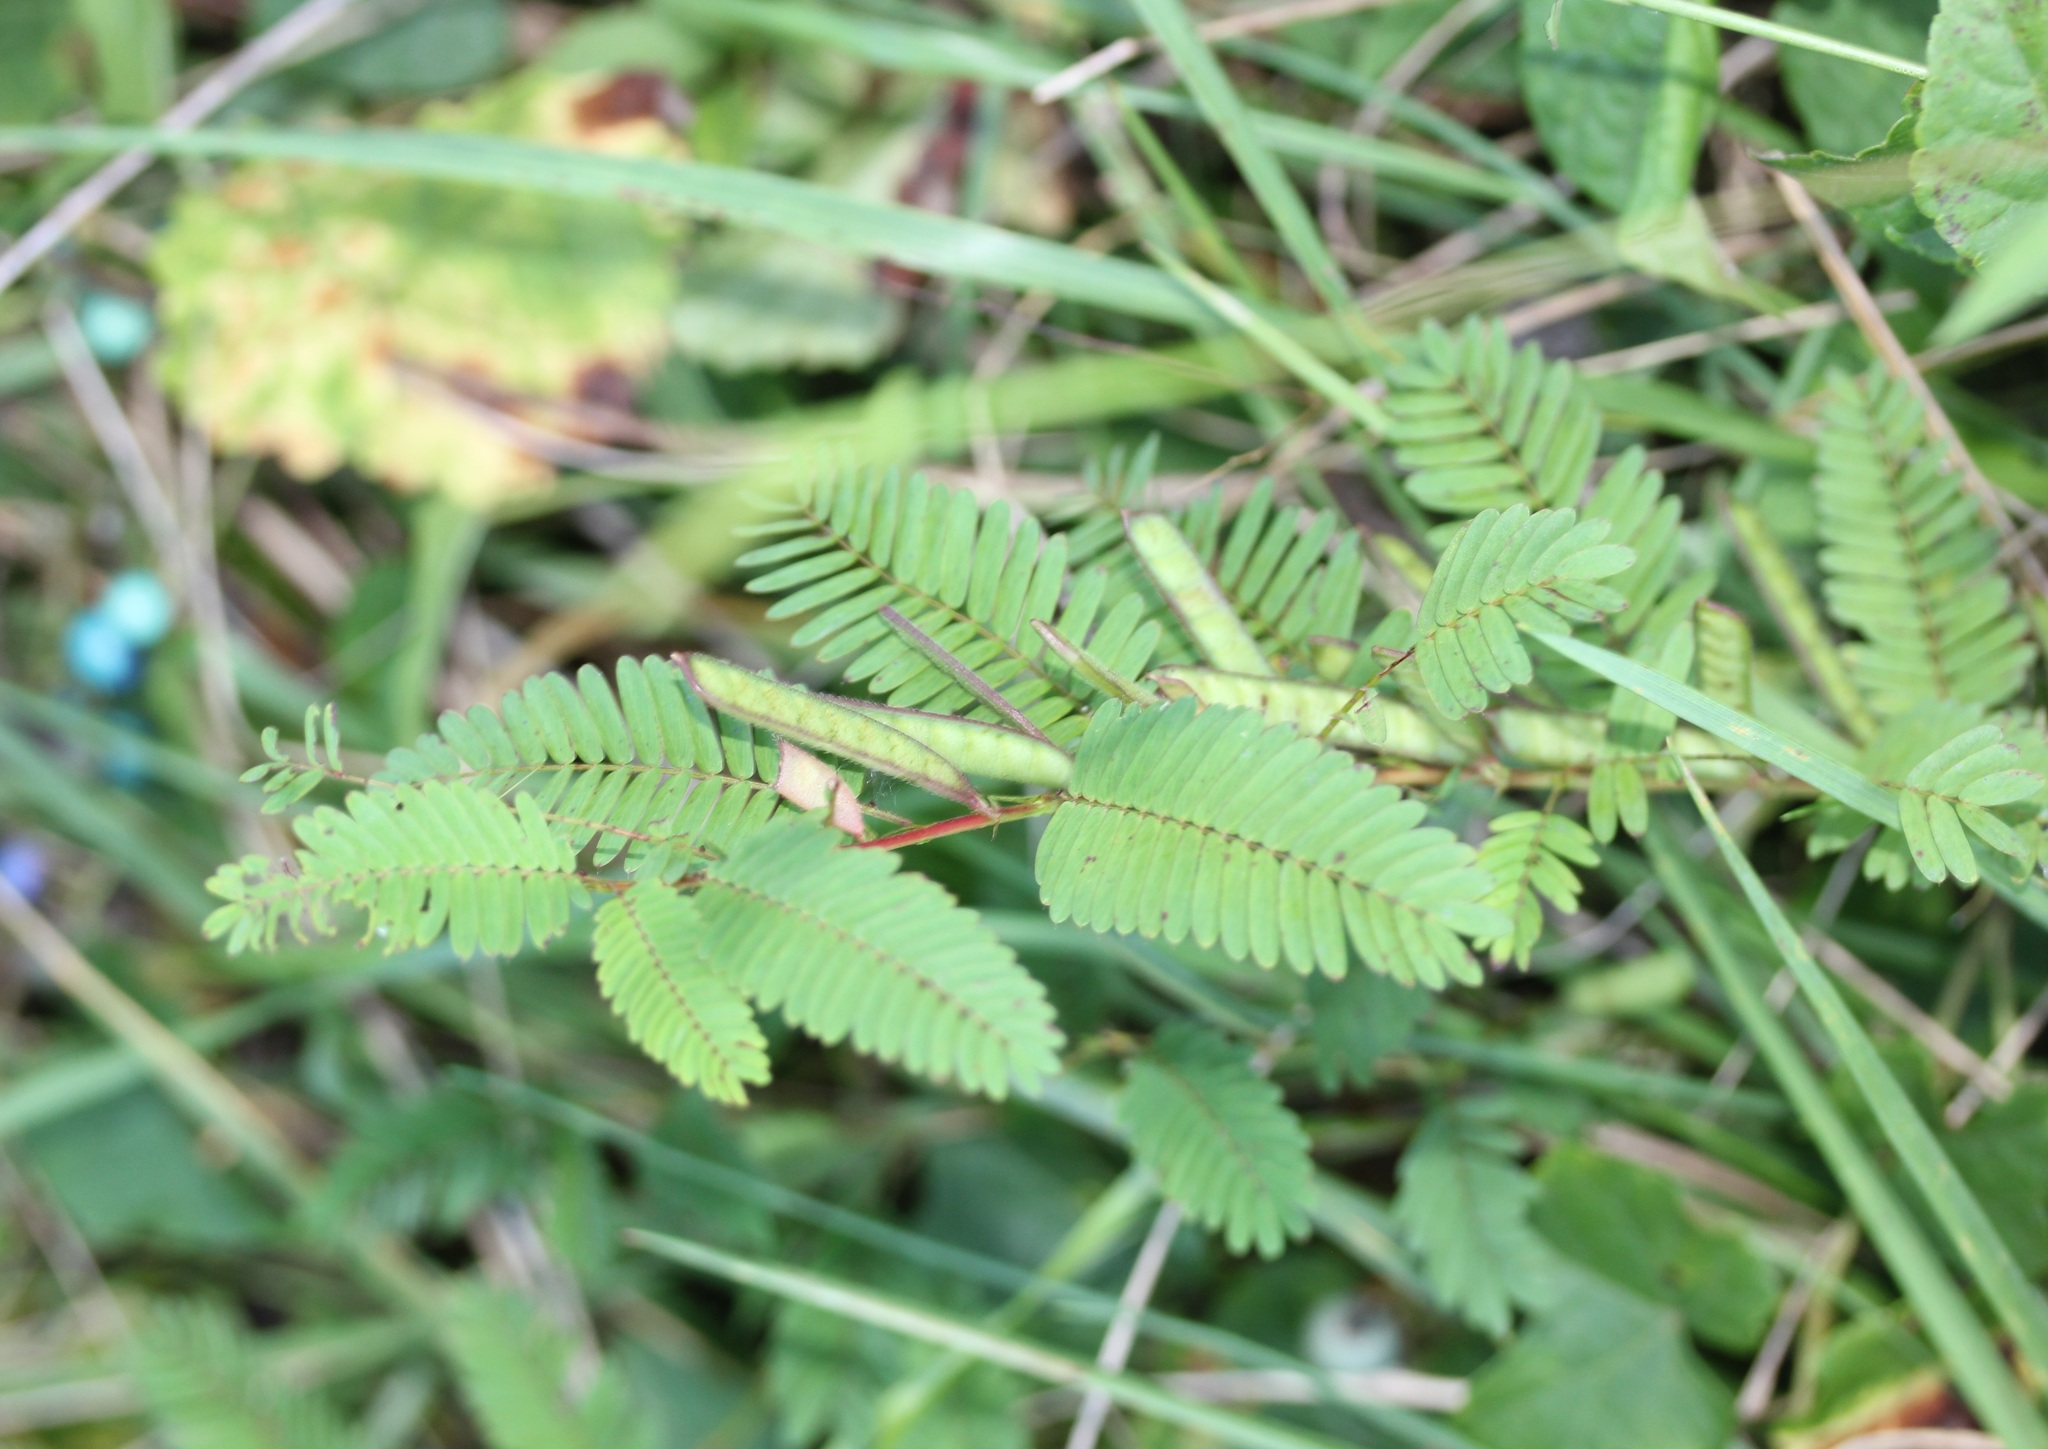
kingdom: Plantae
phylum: Tracheophyta
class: Magnoliopsida
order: Fabales
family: Fabaceae
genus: Chamaecrista
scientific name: Chamaecrista nictitans
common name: Sensitive cassia
